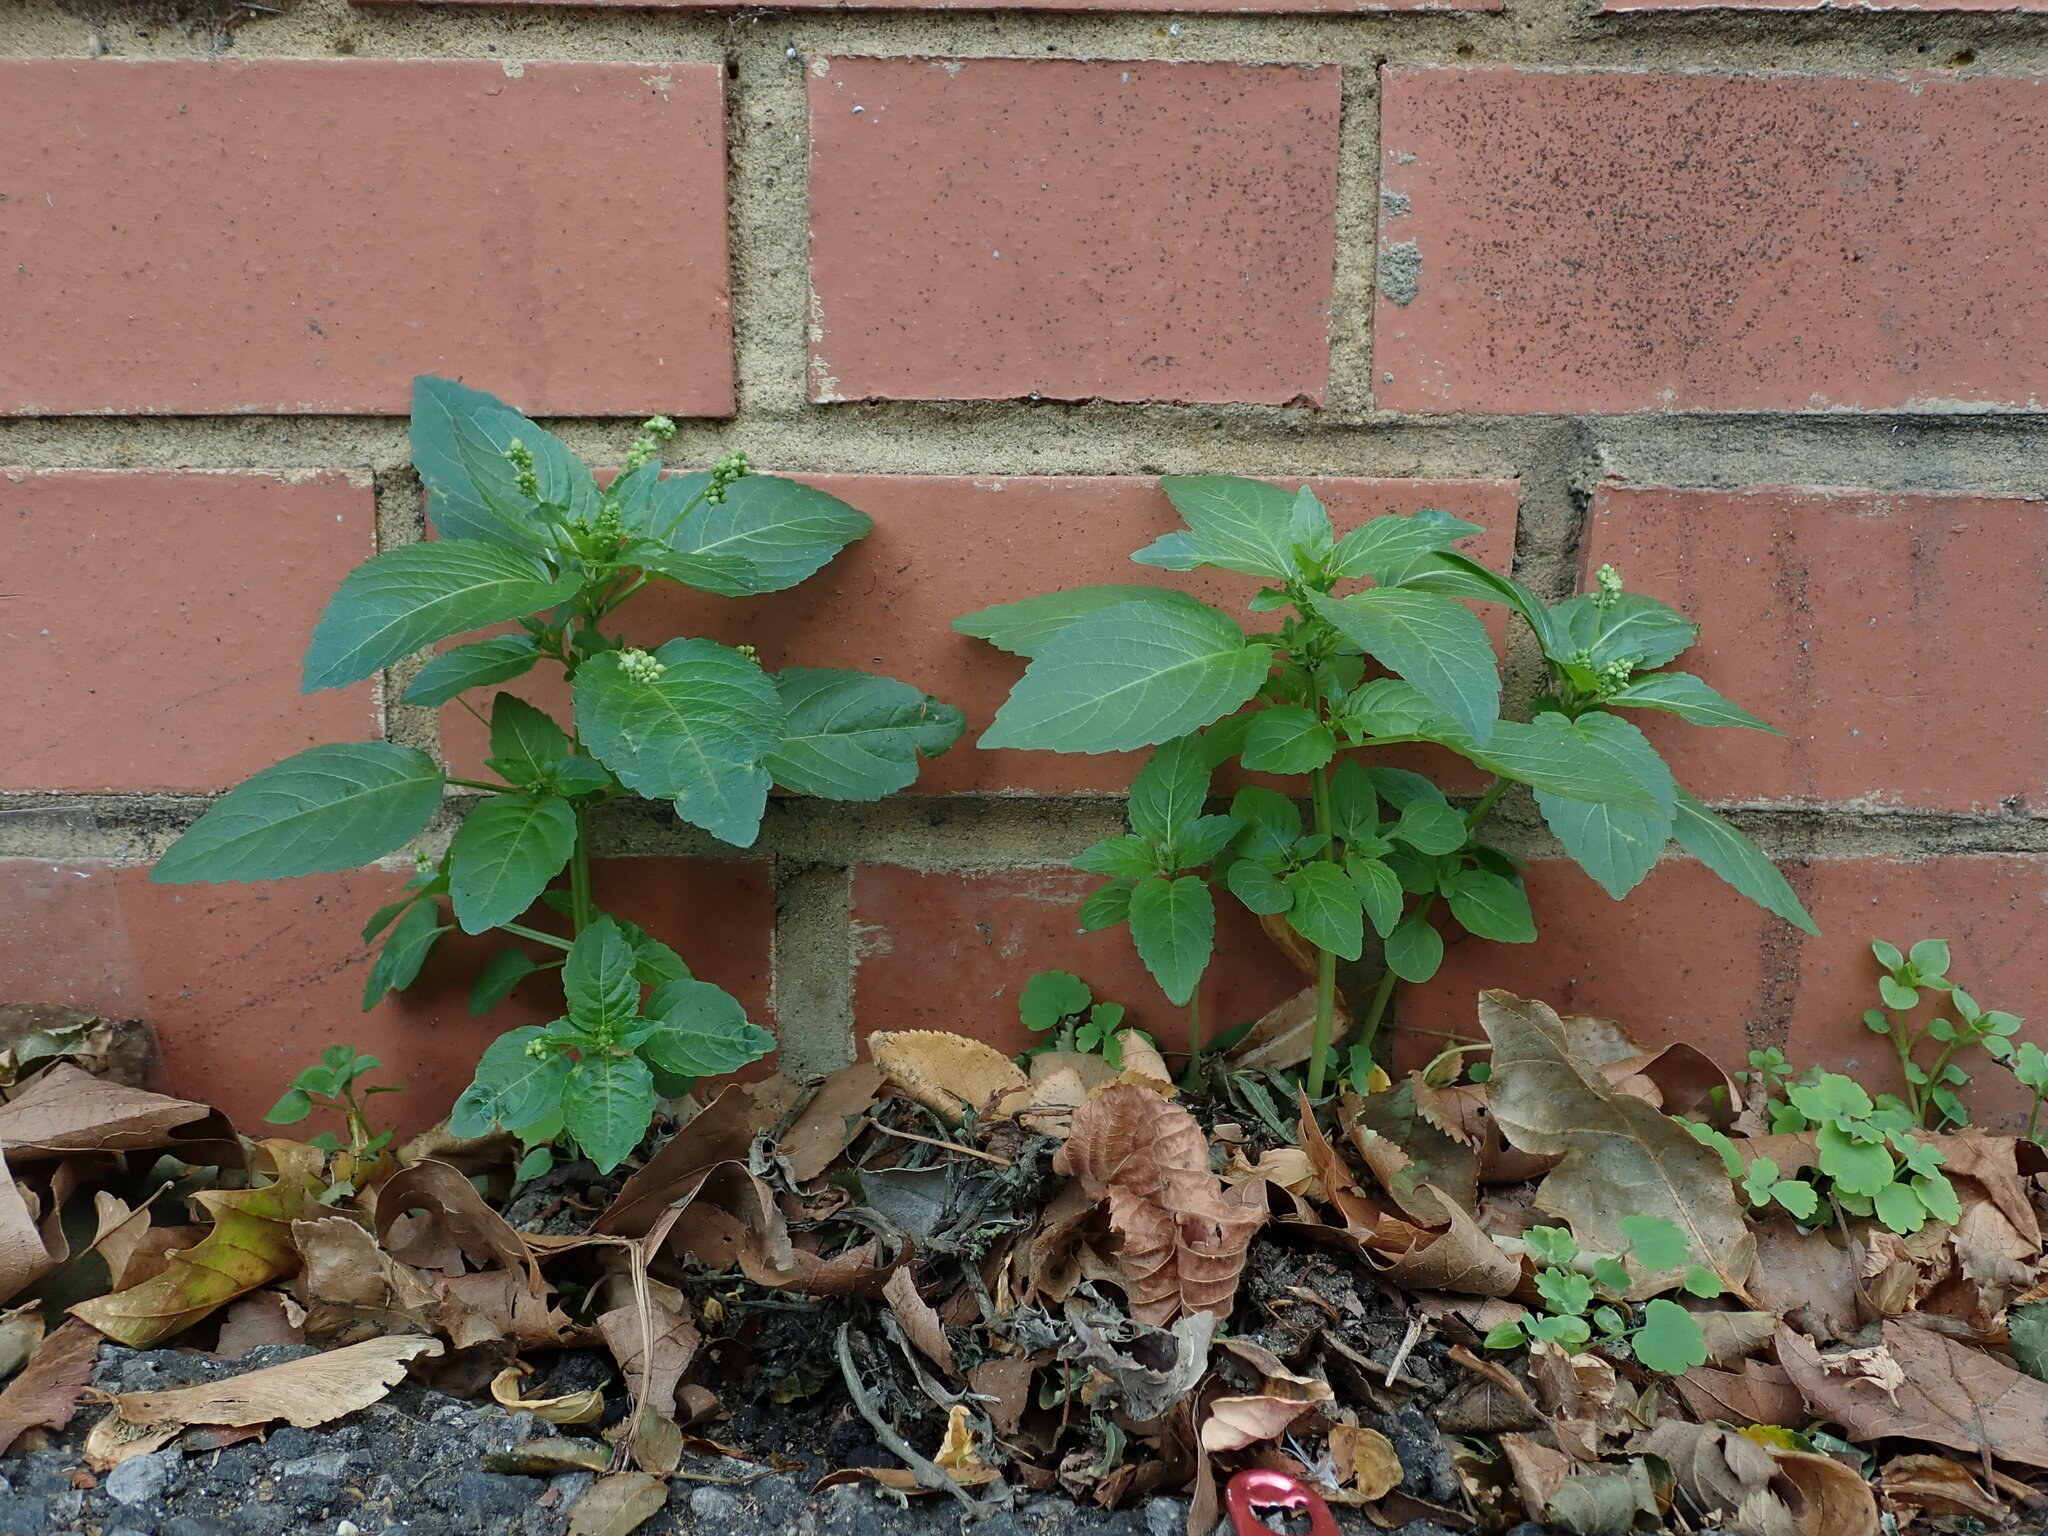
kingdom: Plantae
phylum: Tracheophyta
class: Magnoliopsida
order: Malpighiales
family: Euphorbiaceae
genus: Mercurialis
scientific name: Mercurialis annua
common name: Annual mercury
